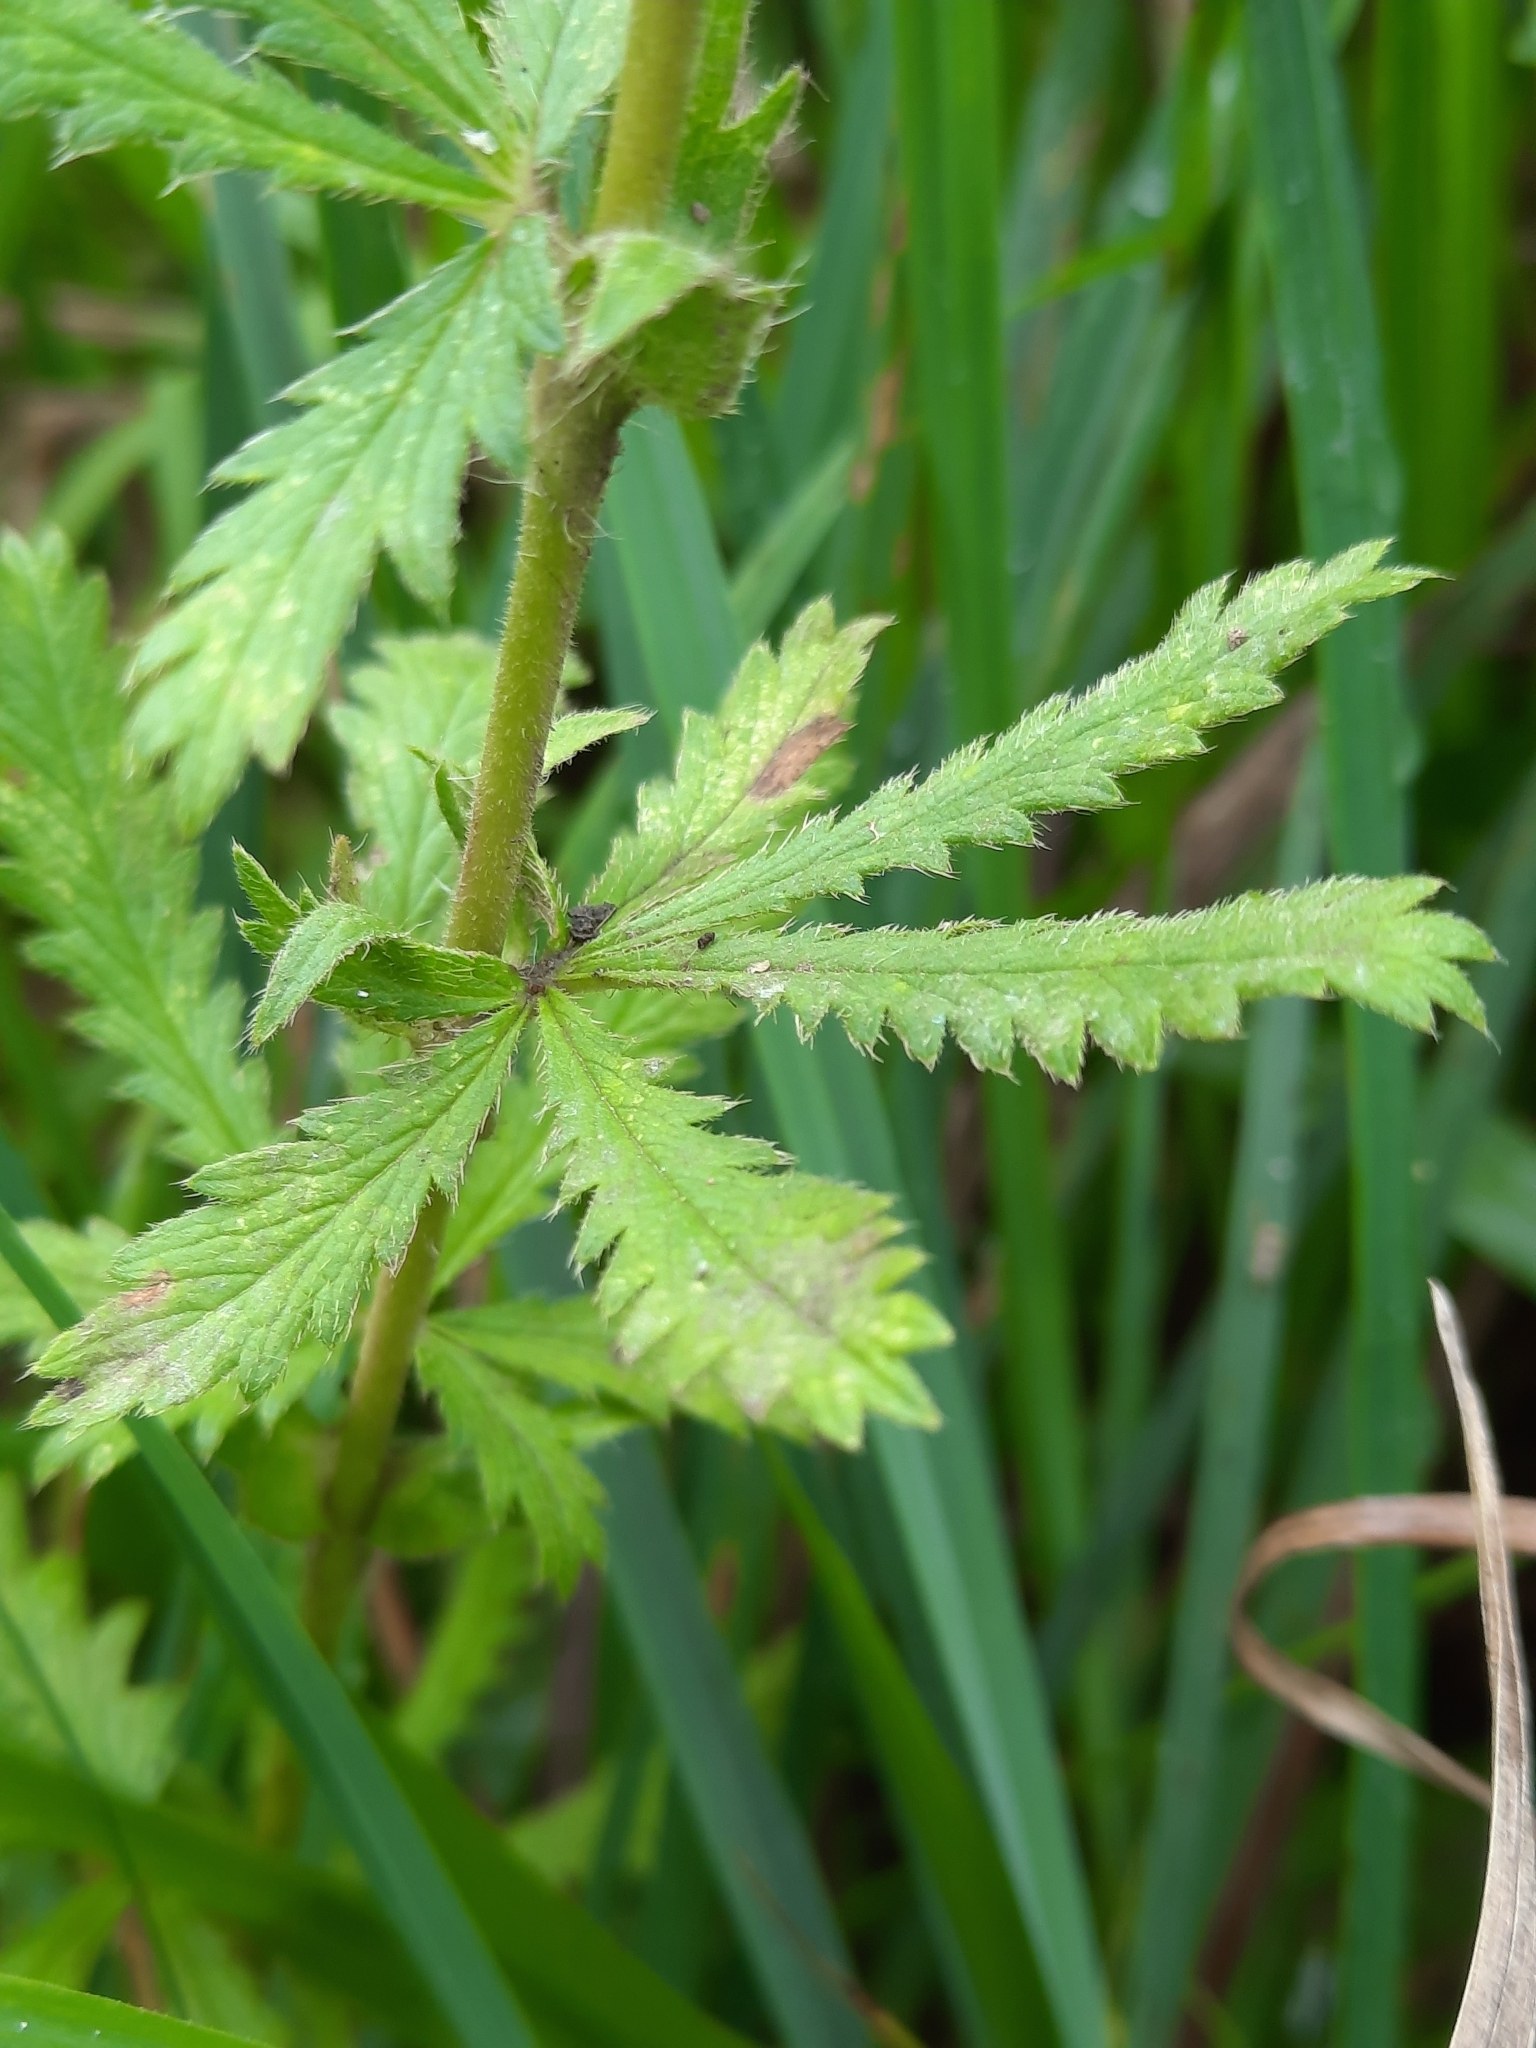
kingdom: Plantae
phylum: Tracheophyta
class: Magnoliopsida
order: Rosales
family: Rosaceae
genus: Potentilla
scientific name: Potentilla recta
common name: Sulphur cinquefoil
